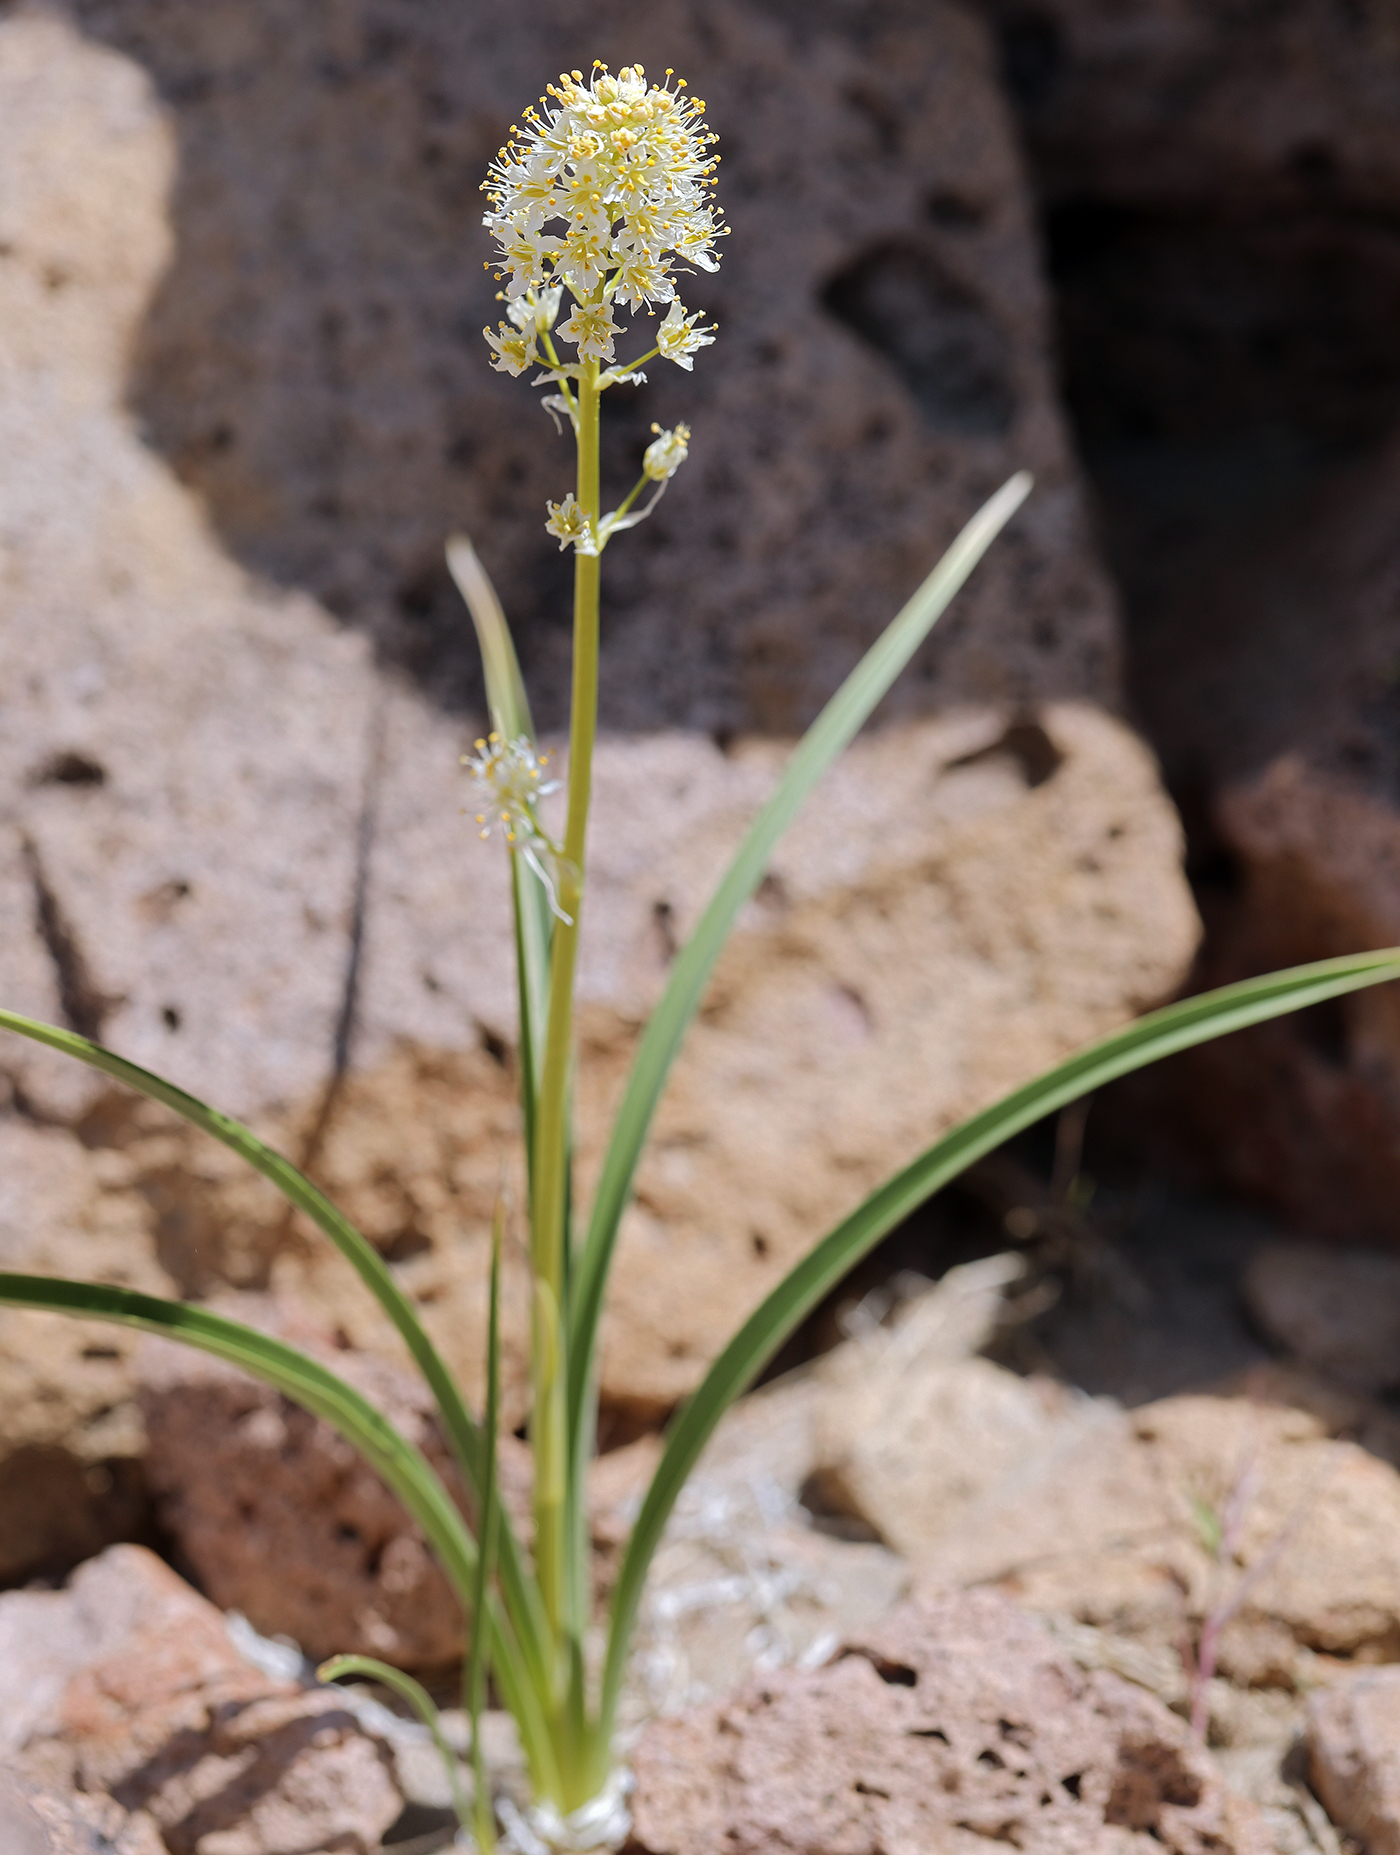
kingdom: Plantae
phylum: Tracheophyta
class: Liliopsida
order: Liliales
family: Melanthiaceae
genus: Toxicoscordion
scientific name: Toxicoscordion venenosum
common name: Meadow death camas
